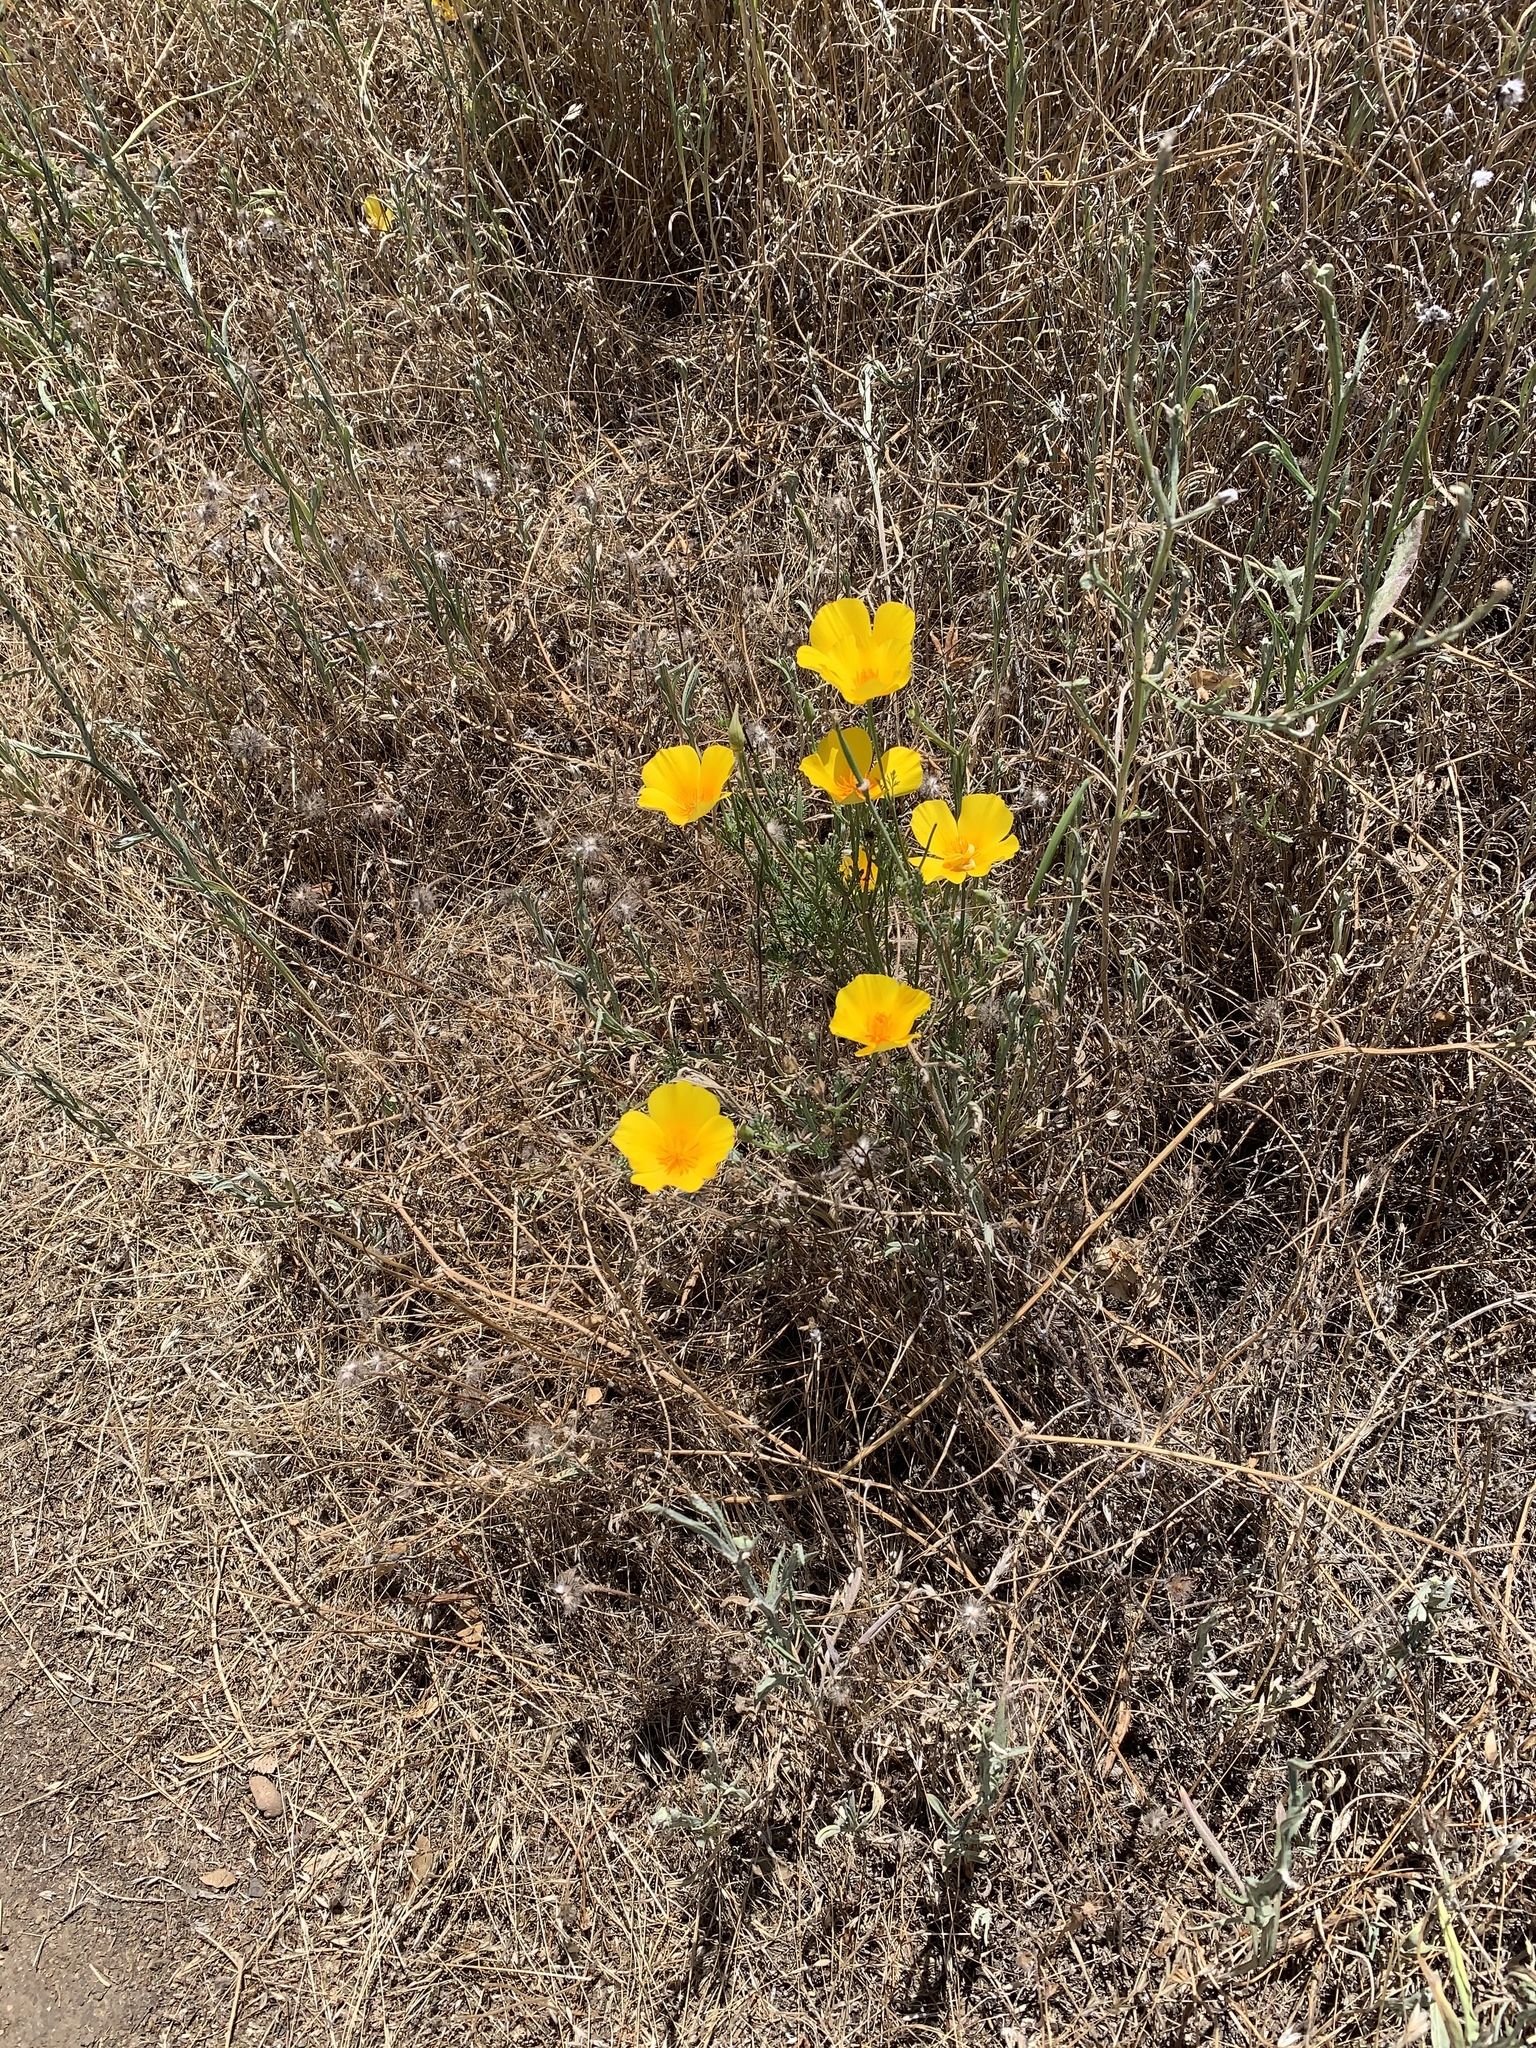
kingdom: Plantae
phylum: Tracheophyta
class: Magnoliopsida
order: Ranunculales
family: Papaveraceae
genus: Eschscholzia
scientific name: Eschscholzia californica
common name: California poppy
